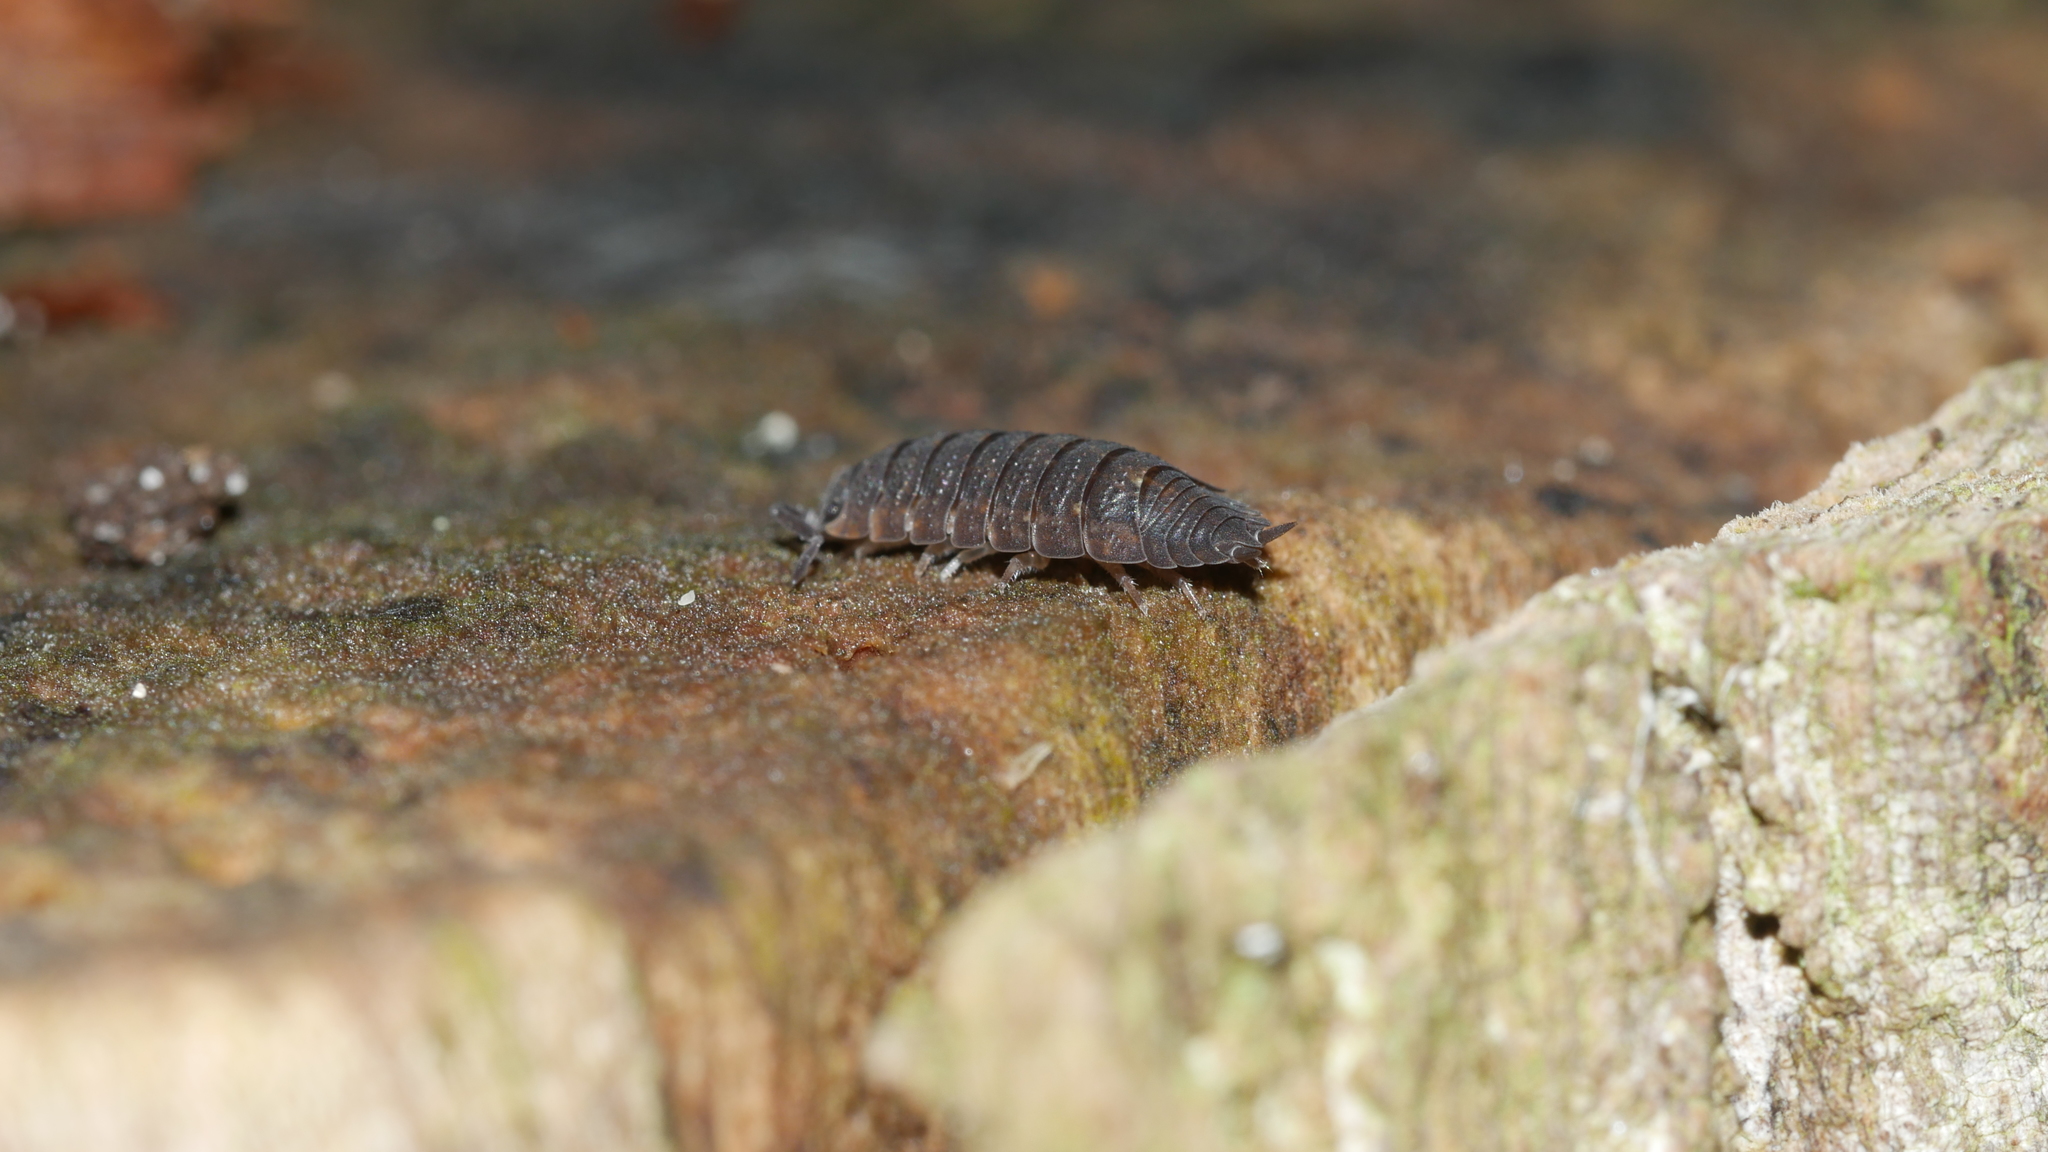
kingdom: Animalia
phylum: Arthropoda
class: Malacostraca
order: Isopoda
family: Porcellionidae
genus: Porcellio
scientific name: Porcellio scaber
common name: Common rough woodlouse
